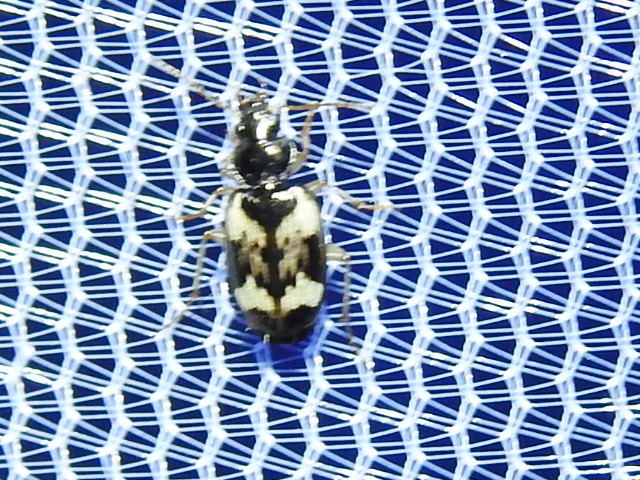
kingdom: Animalia
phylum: Arthropoda
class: Insecta
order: Coleoptera
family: Carabidae
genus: Tetragonoderus
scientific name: Tetragonoderus fasciatus
